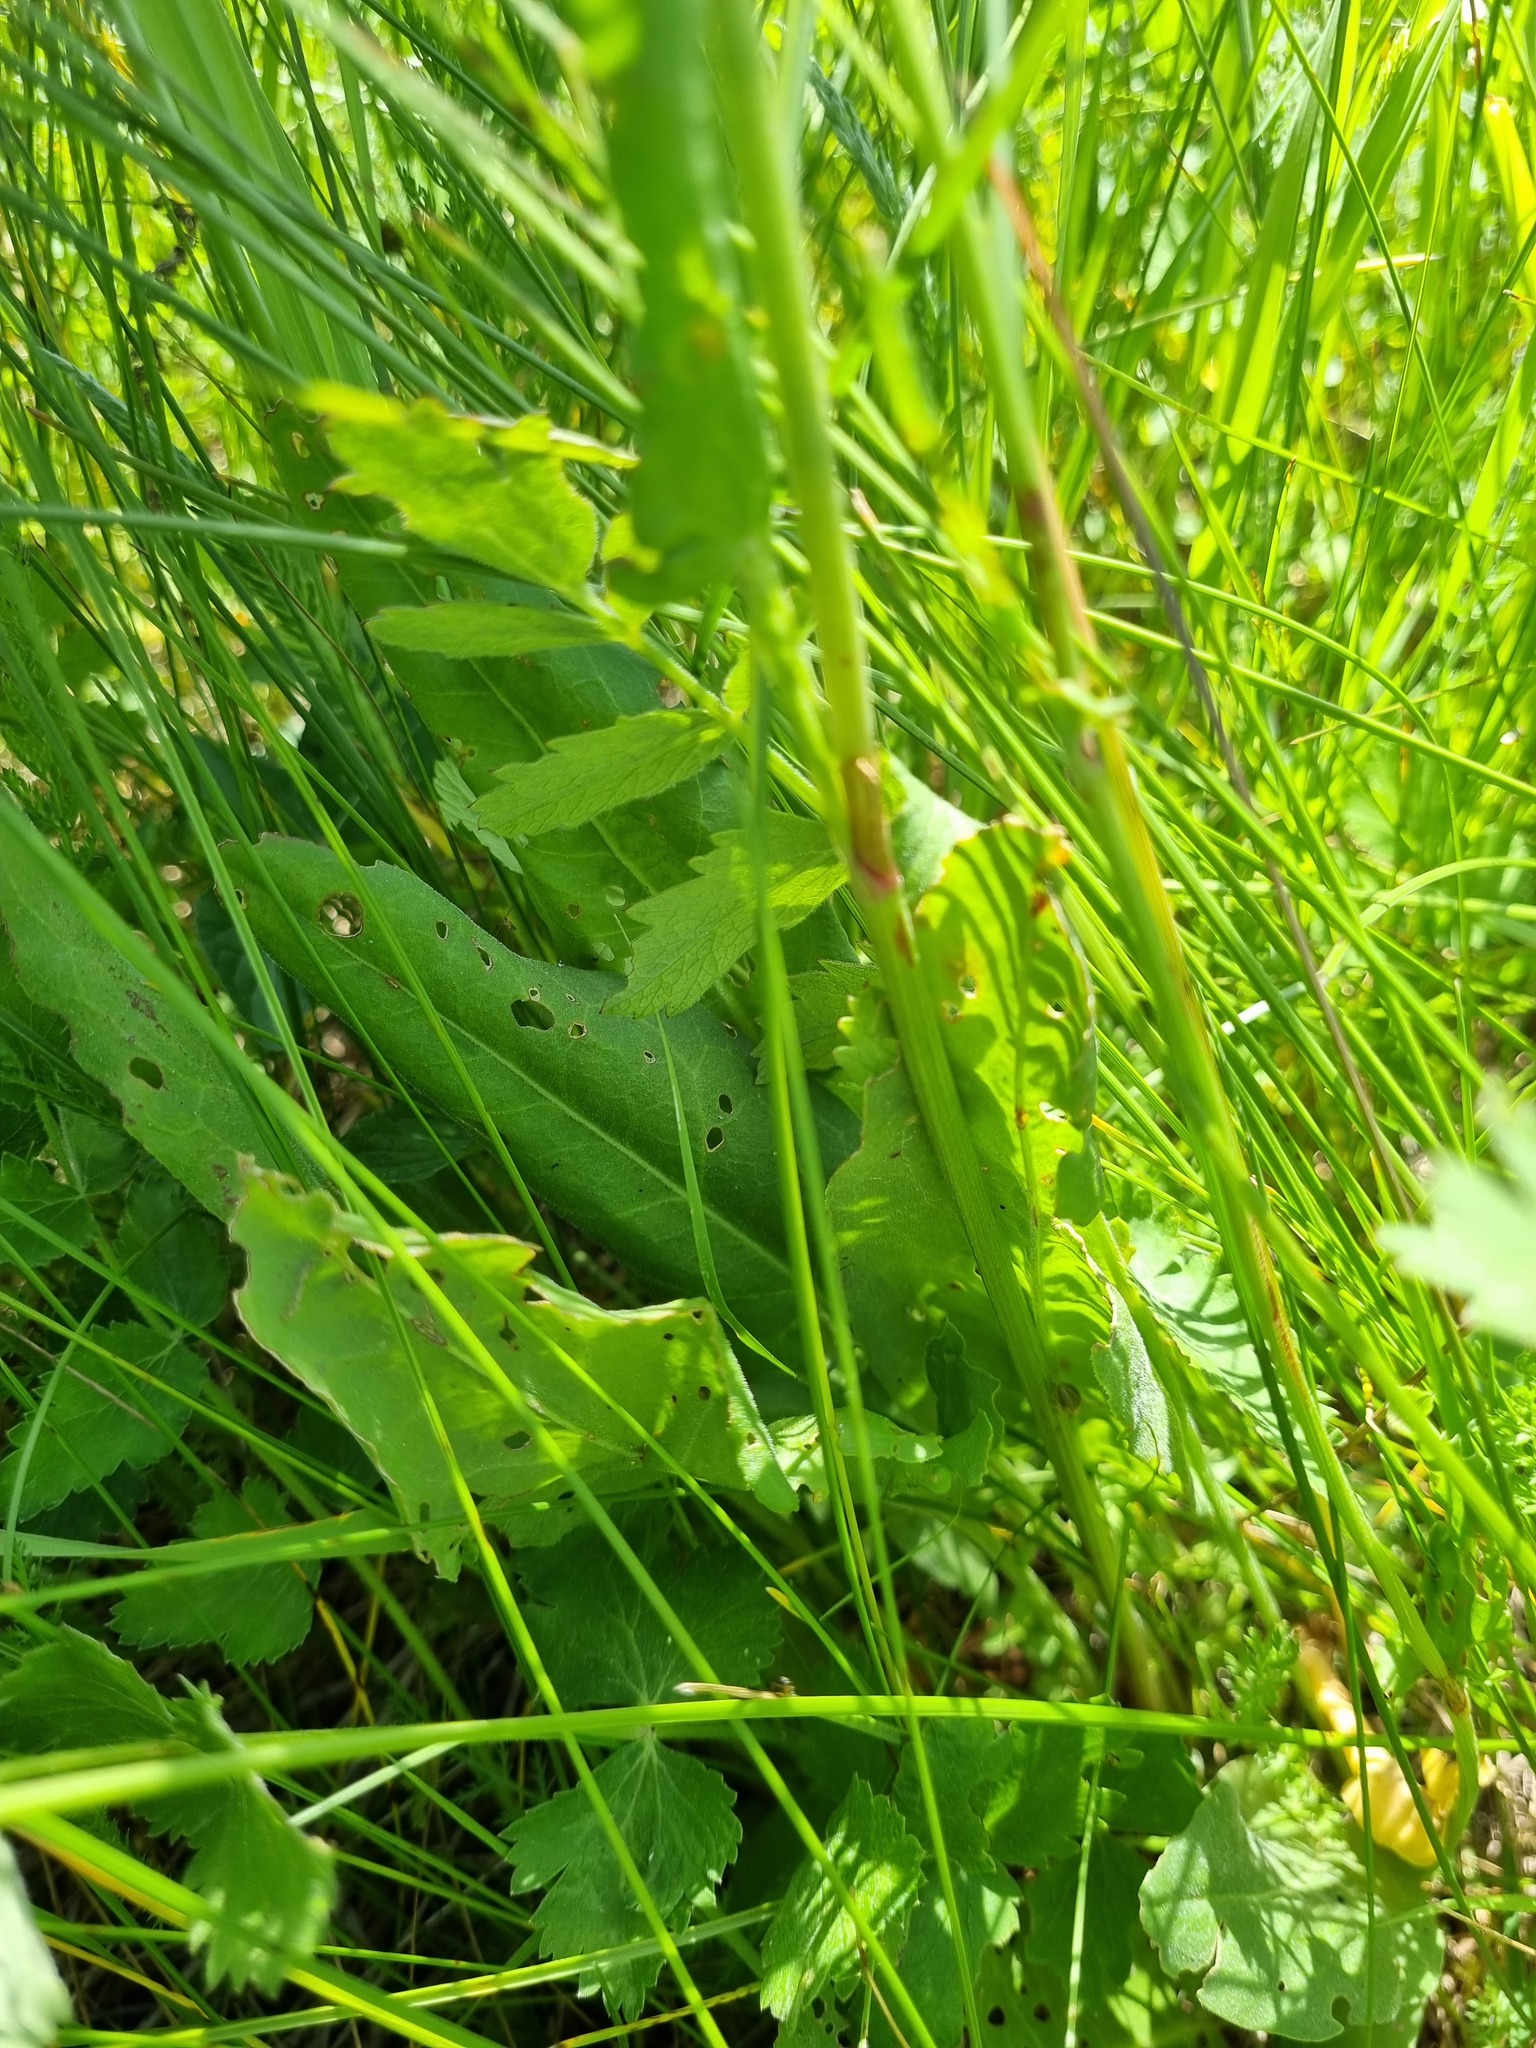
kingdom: Plantae
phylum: Tracheophyta
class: Magnoliopsida
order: Caryophyllales
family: Polygonaceae
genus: Rumex
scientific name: Rumex acetosa
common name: Garden sorrel
